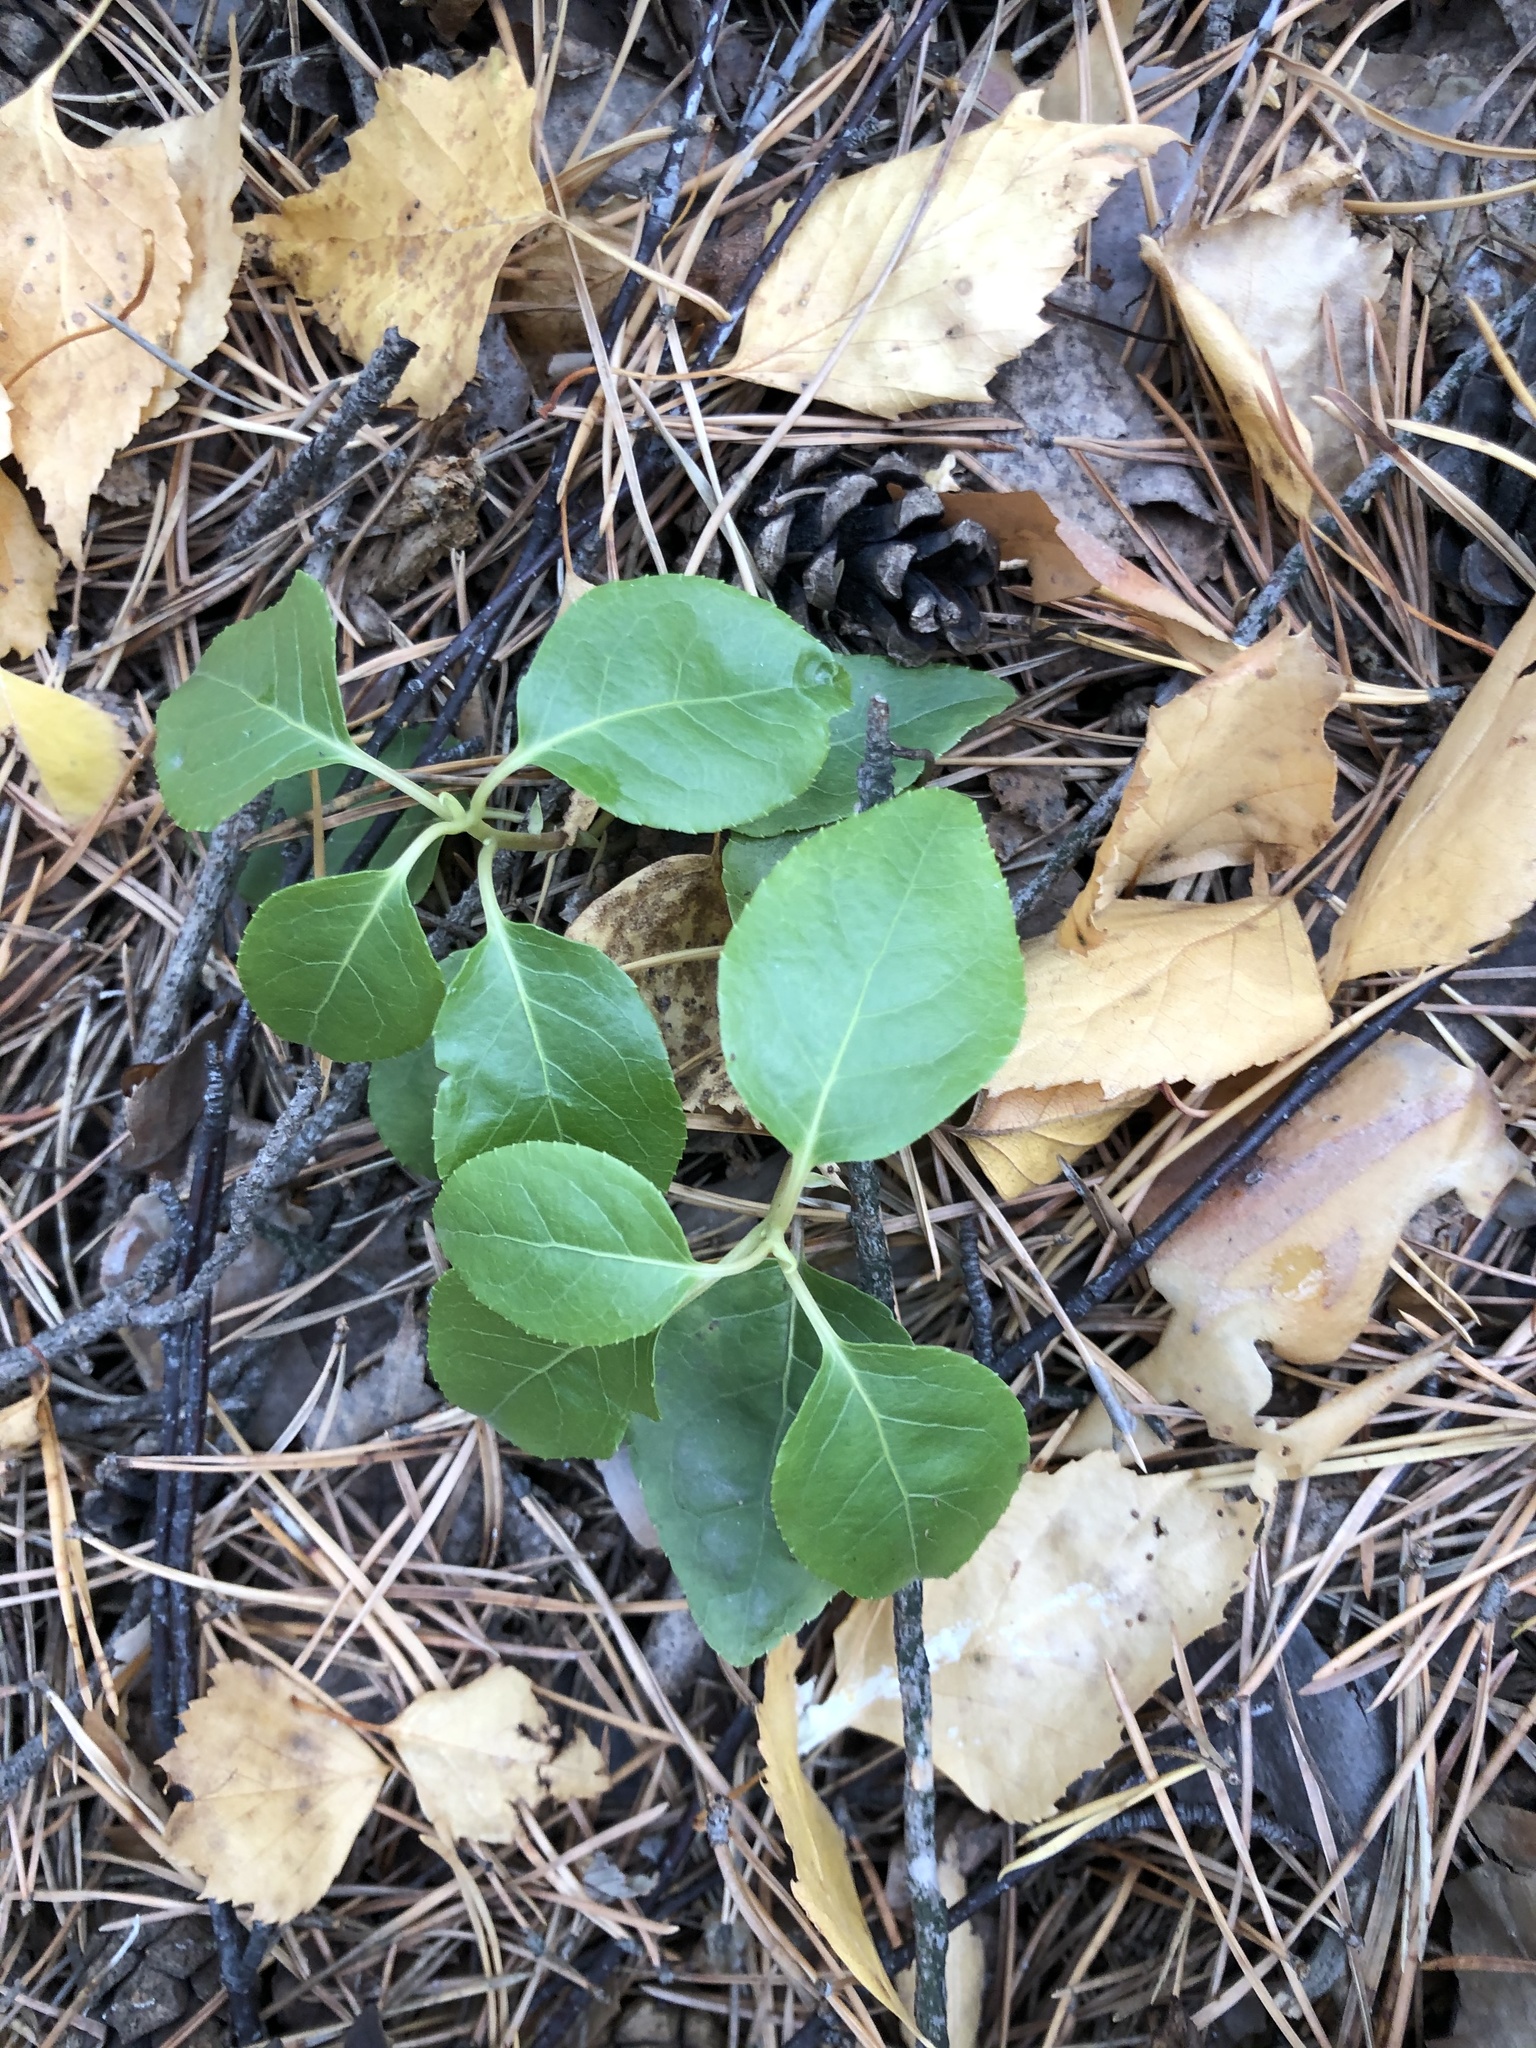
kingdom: Plantae
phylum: Tracheophyta
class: Magnoliopsida
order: Ericales
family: Ericaceae
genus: Orthilia
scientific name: Orthilia secunda
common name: One-sided orthilia
